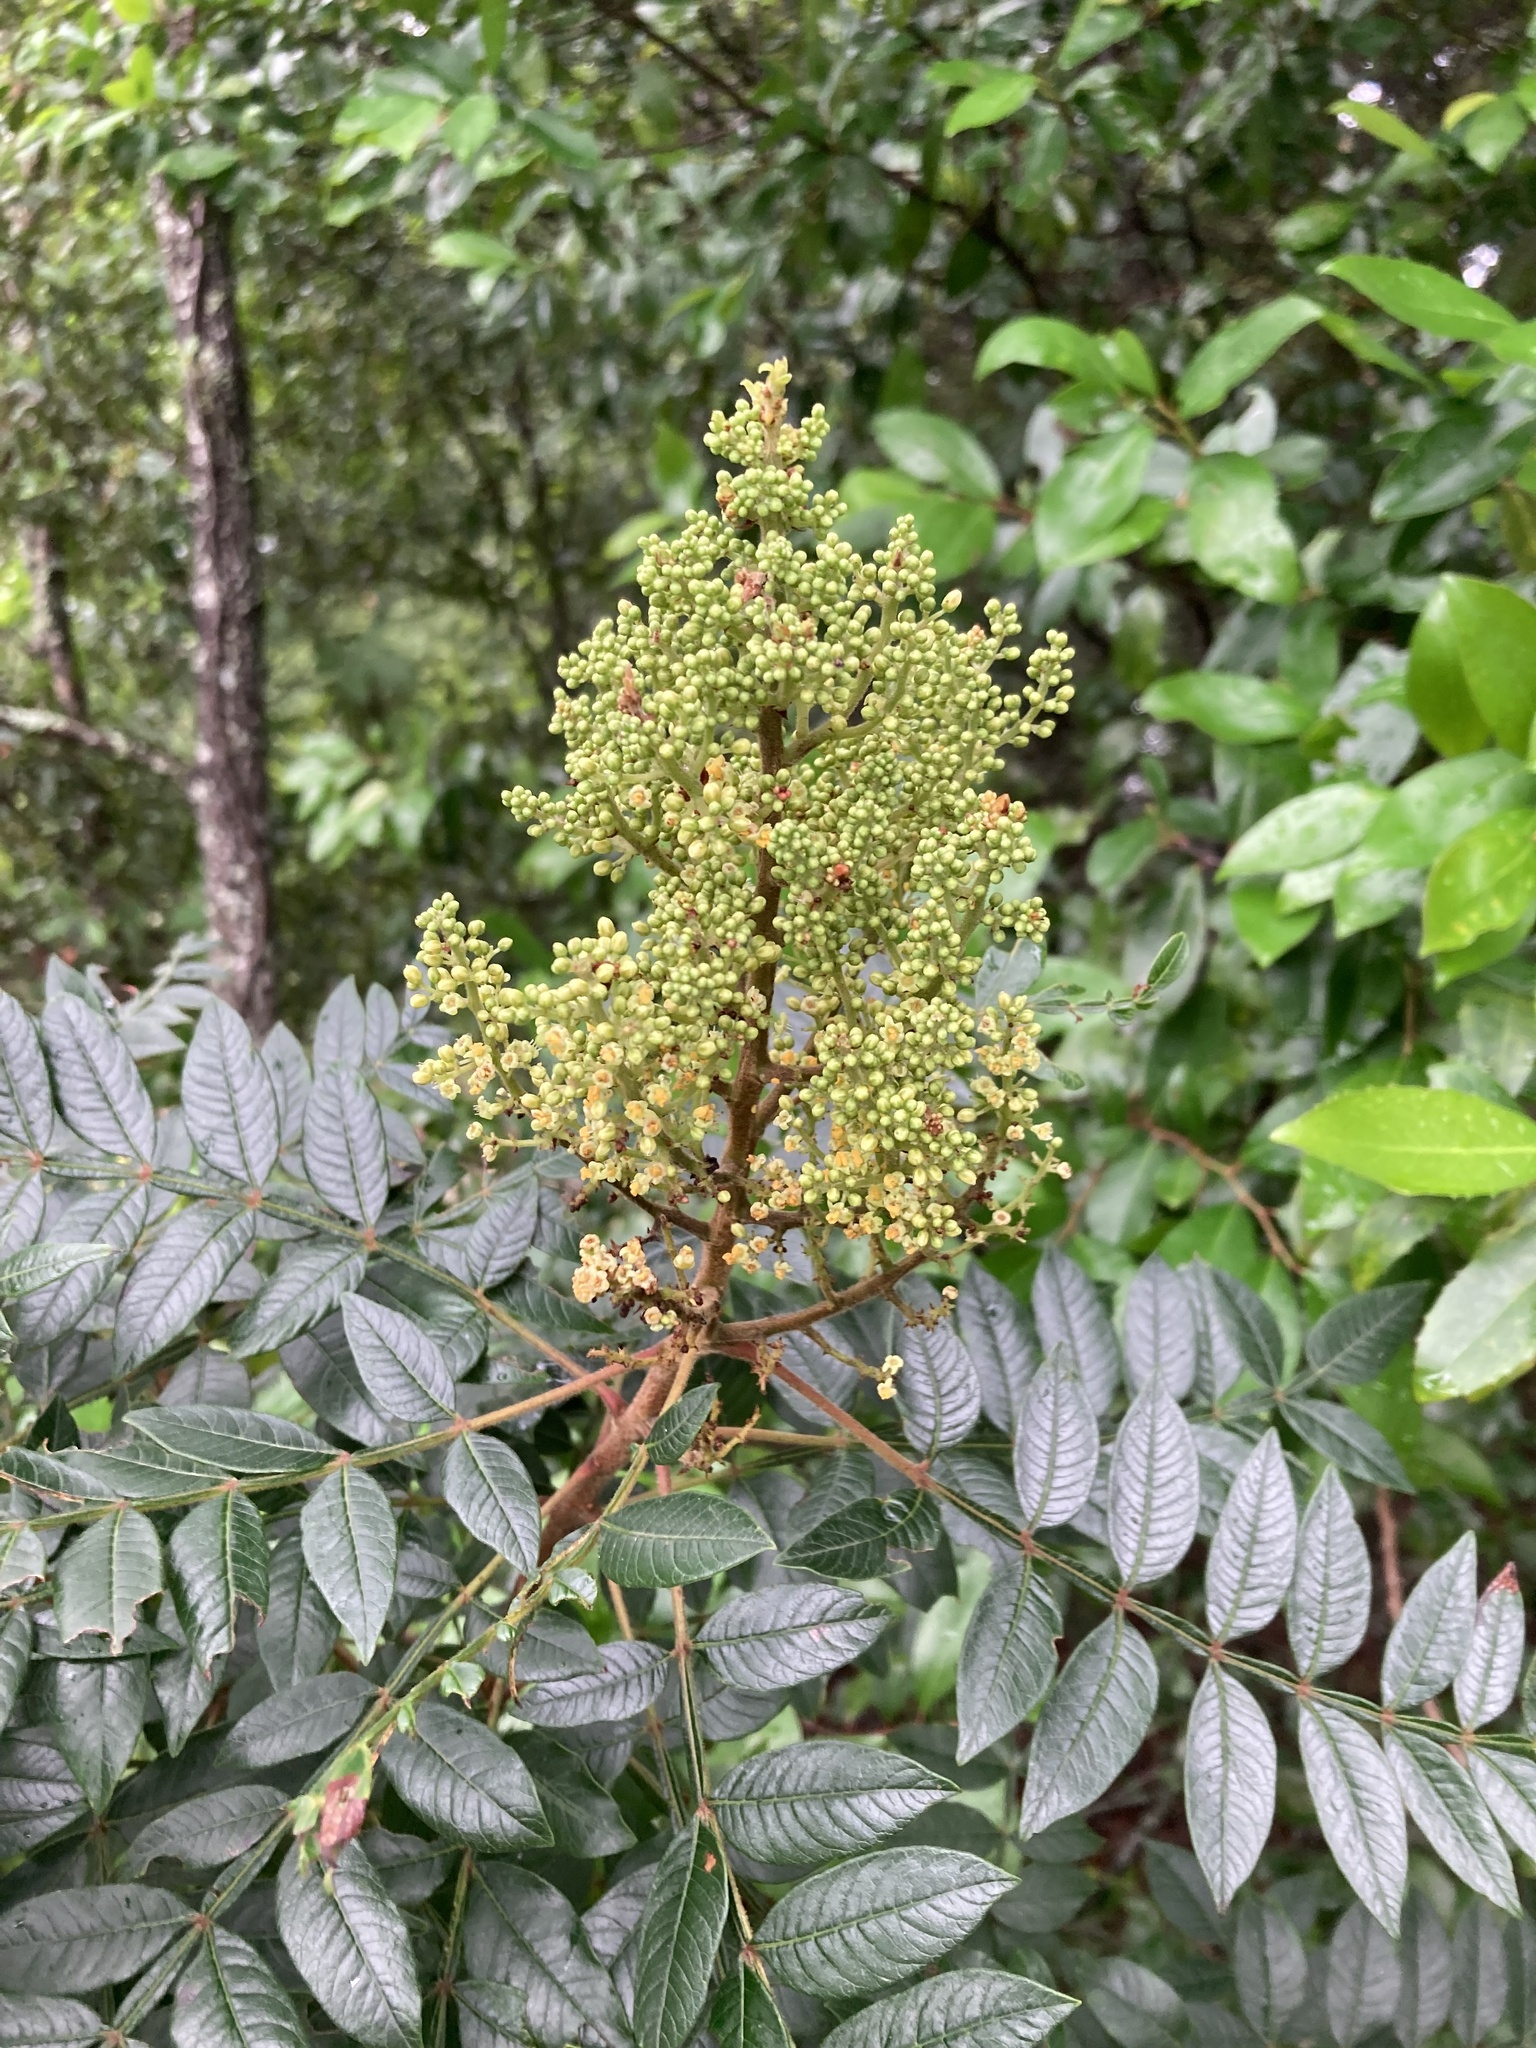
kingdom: Plantae
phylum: Tracheophyta
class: Magnoliopsida
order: Sapindales
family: Anacardiaceae
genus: Rhus
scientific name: Rhus copallina
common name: Shining sumac
